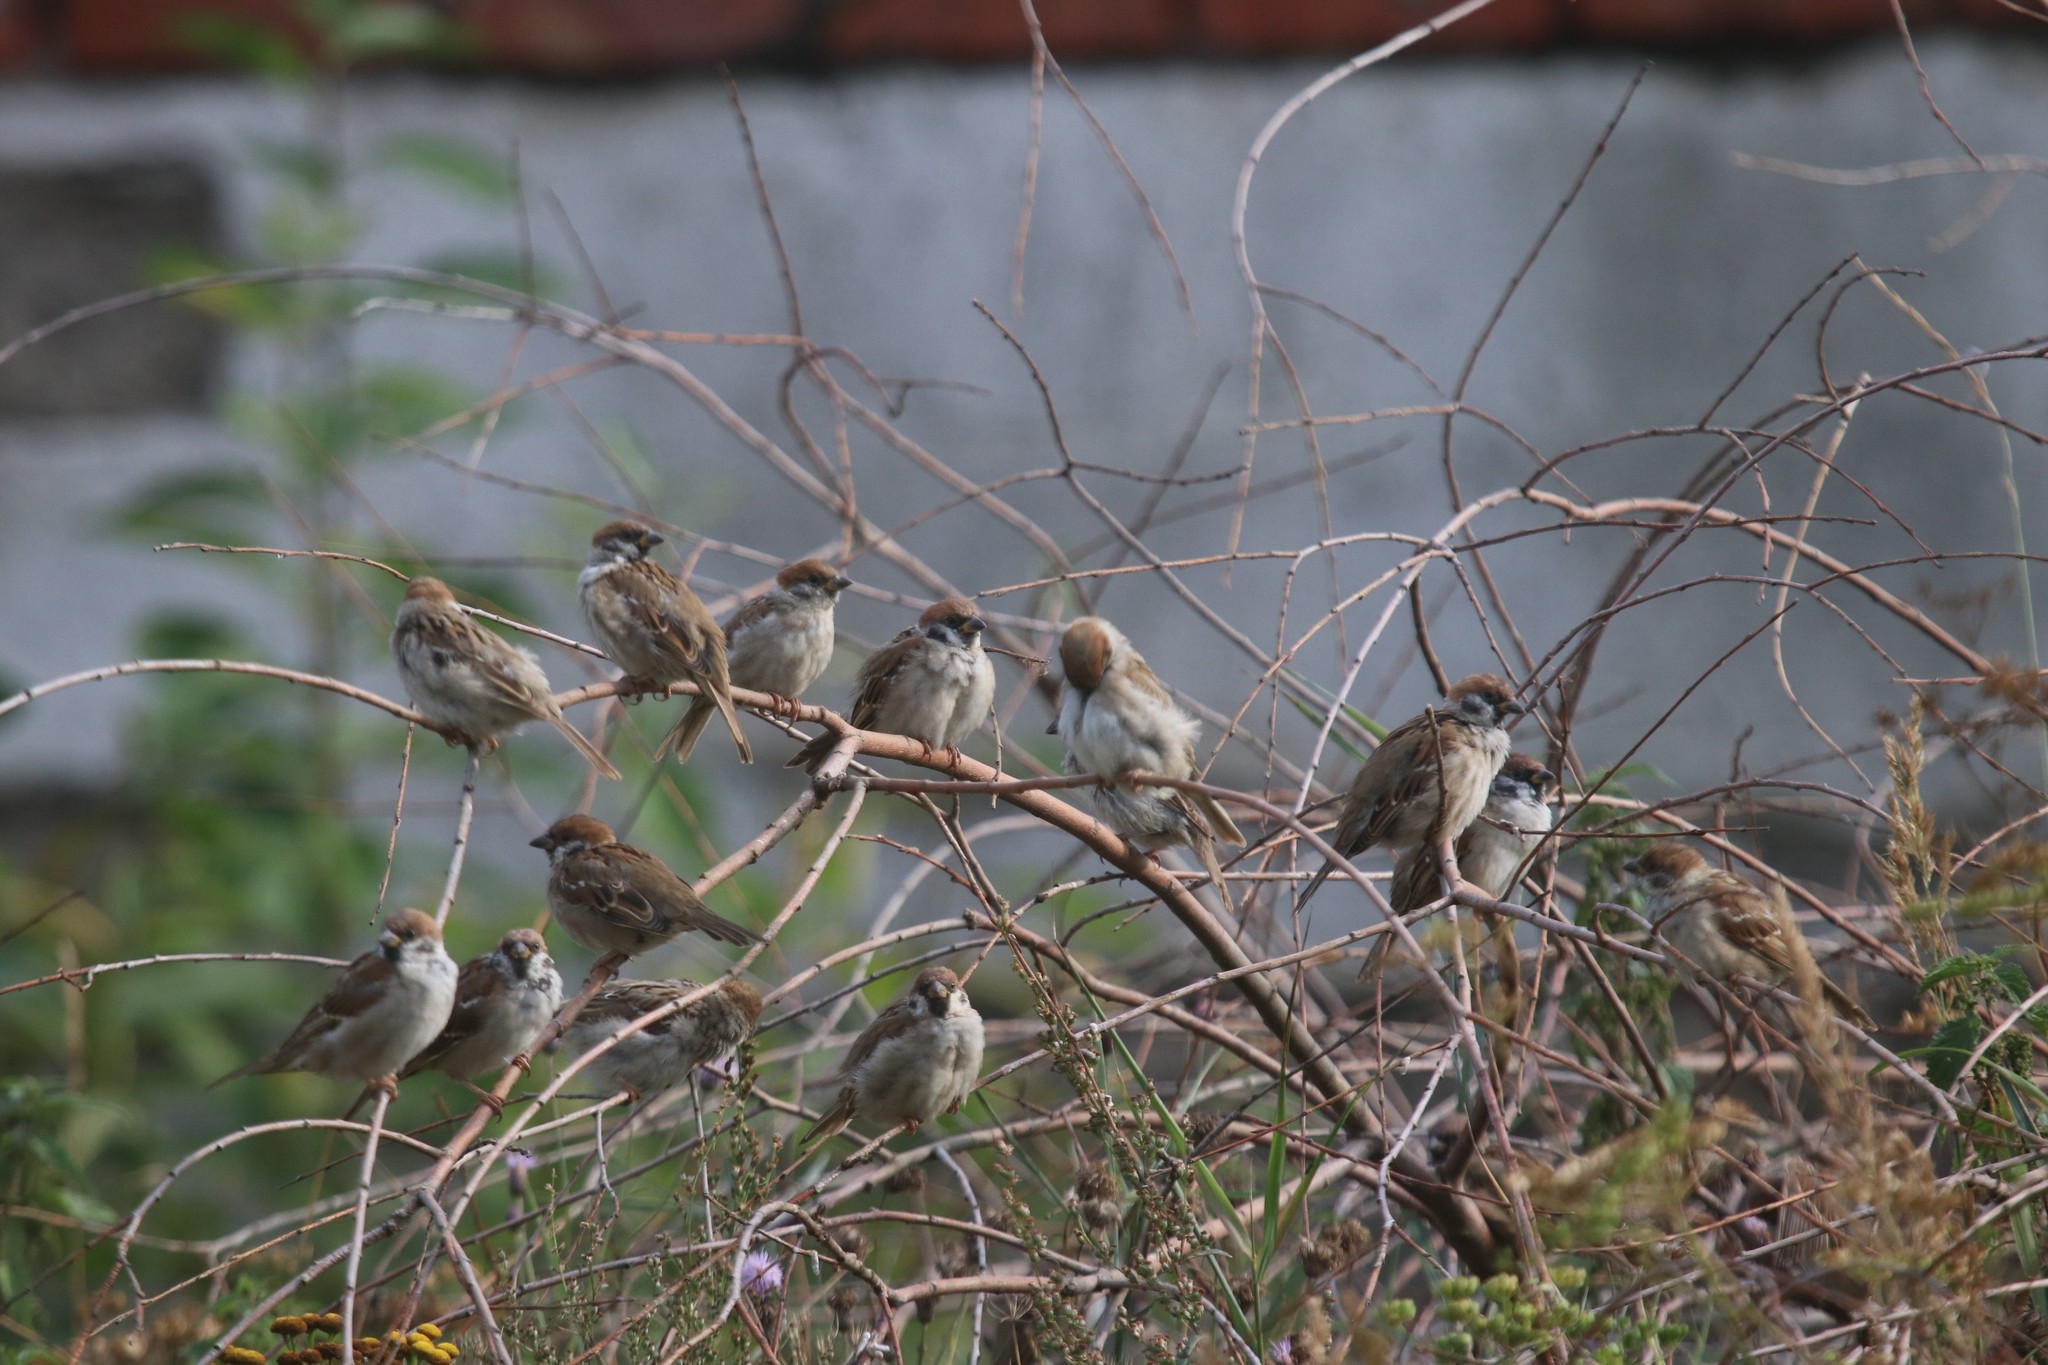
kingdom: Animalia
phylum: Chordata
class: Aves
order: Passeriformes
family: Passeridae
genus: Passer
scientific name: Passer montanus
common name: Eurasian tree sparrow
